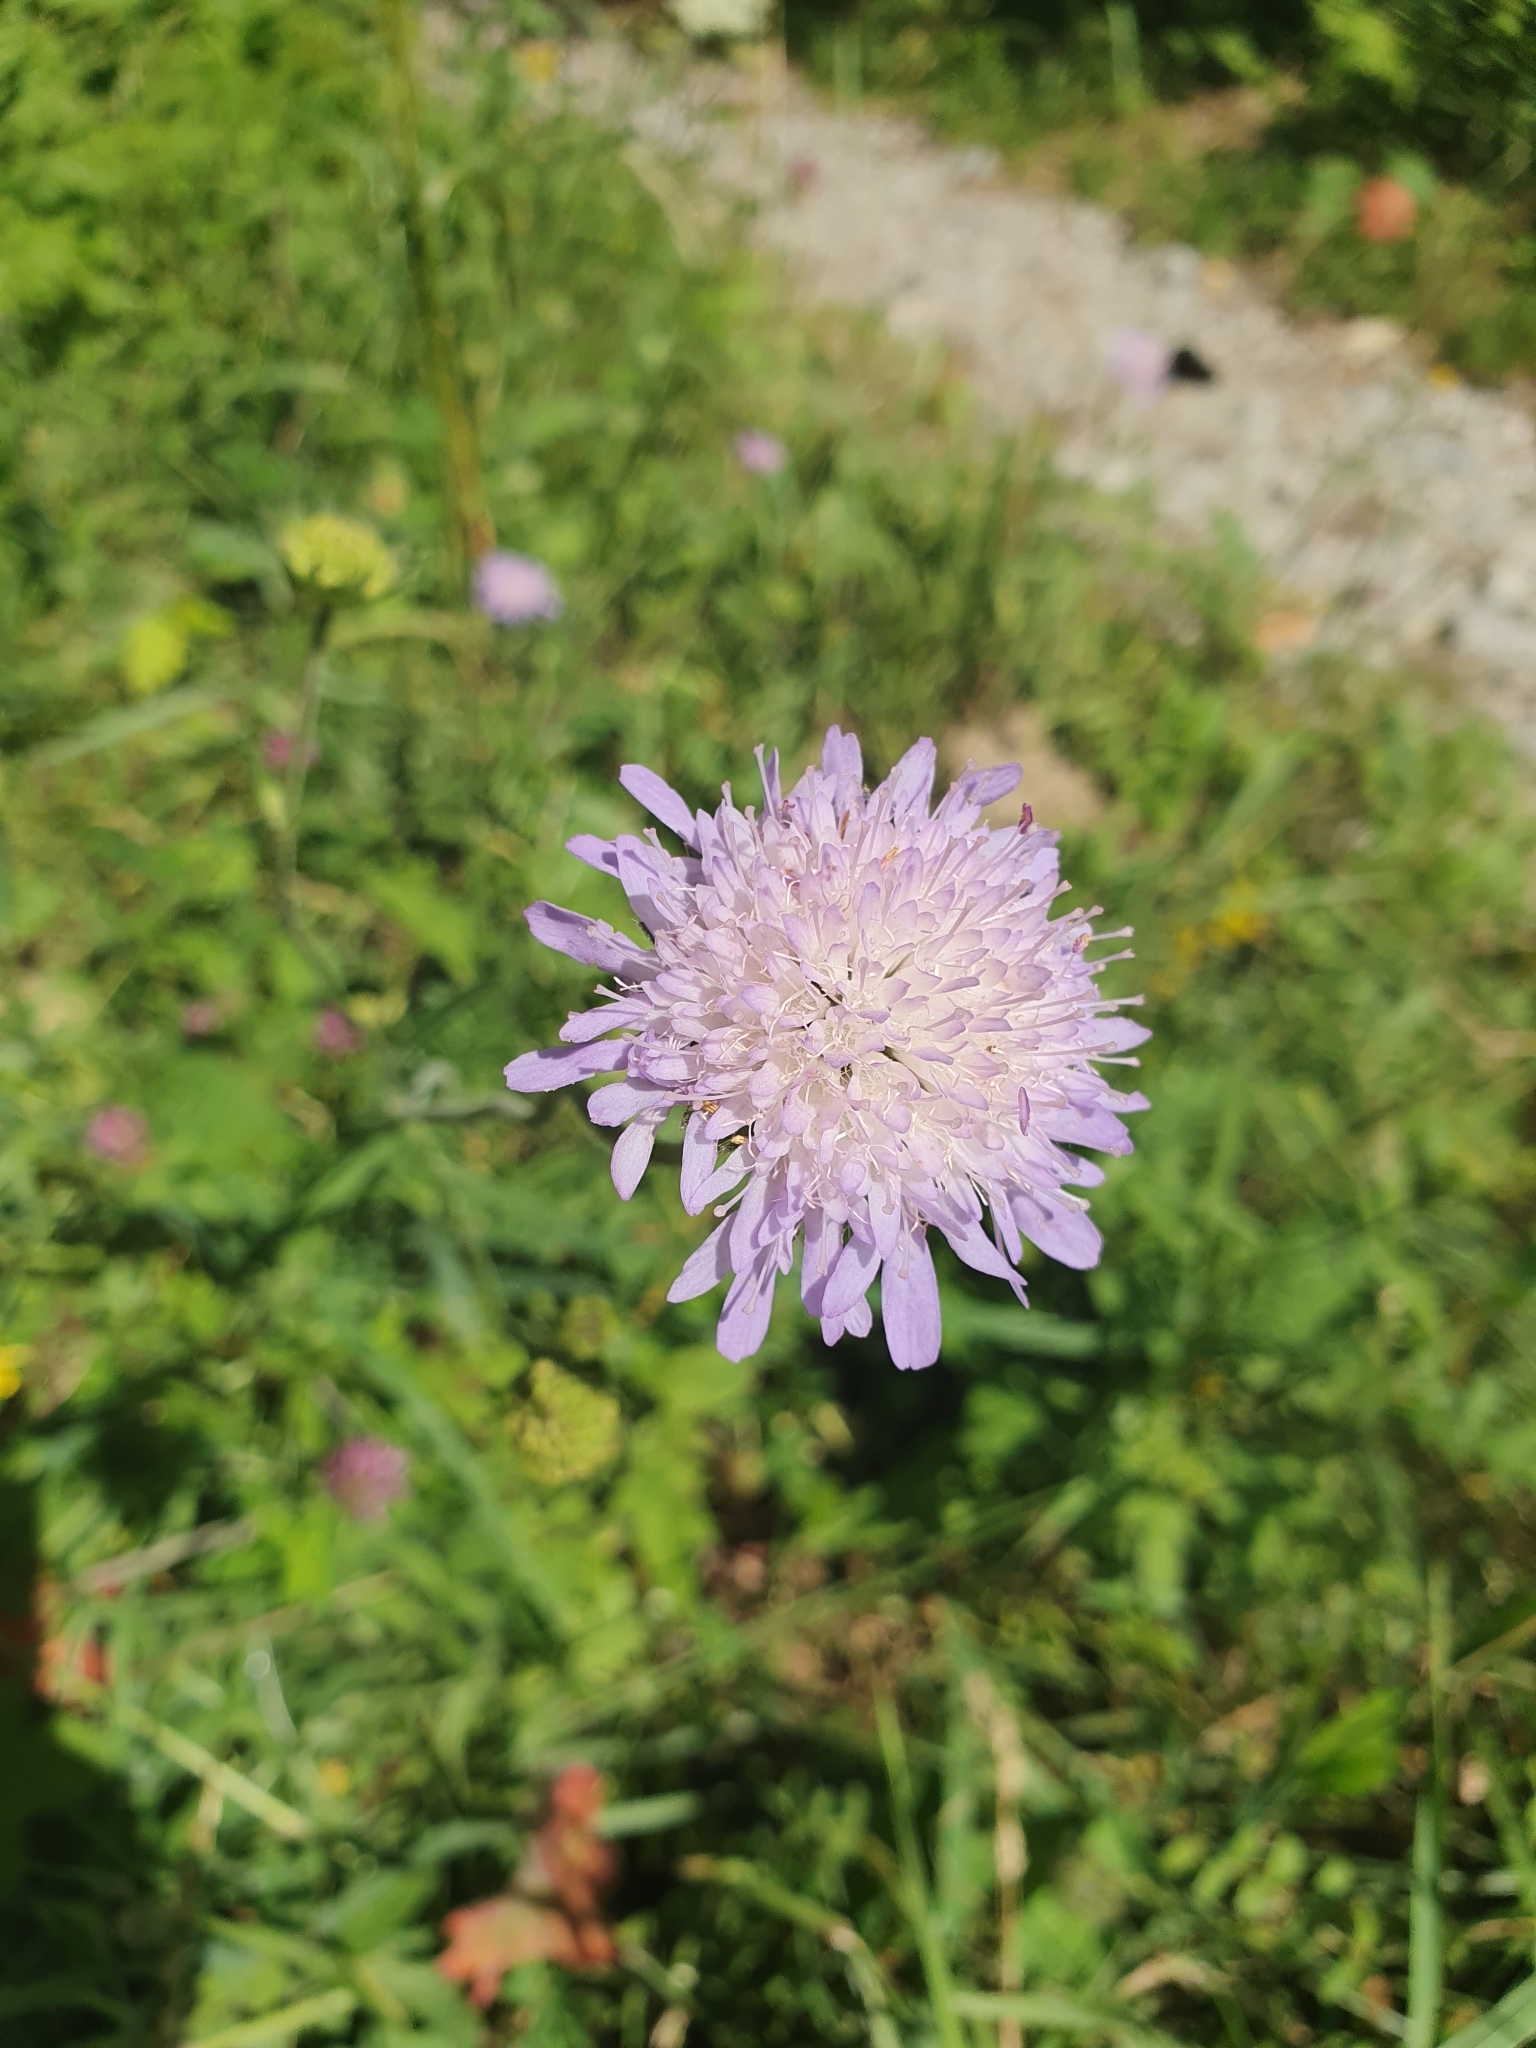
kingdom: Plantae
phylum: Tracheophyta
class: Magnoliopsida
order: Dipsacales
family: Caprifoliaceae
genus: Knautia
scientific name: Knautia arvensis
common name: Field scabiosa
